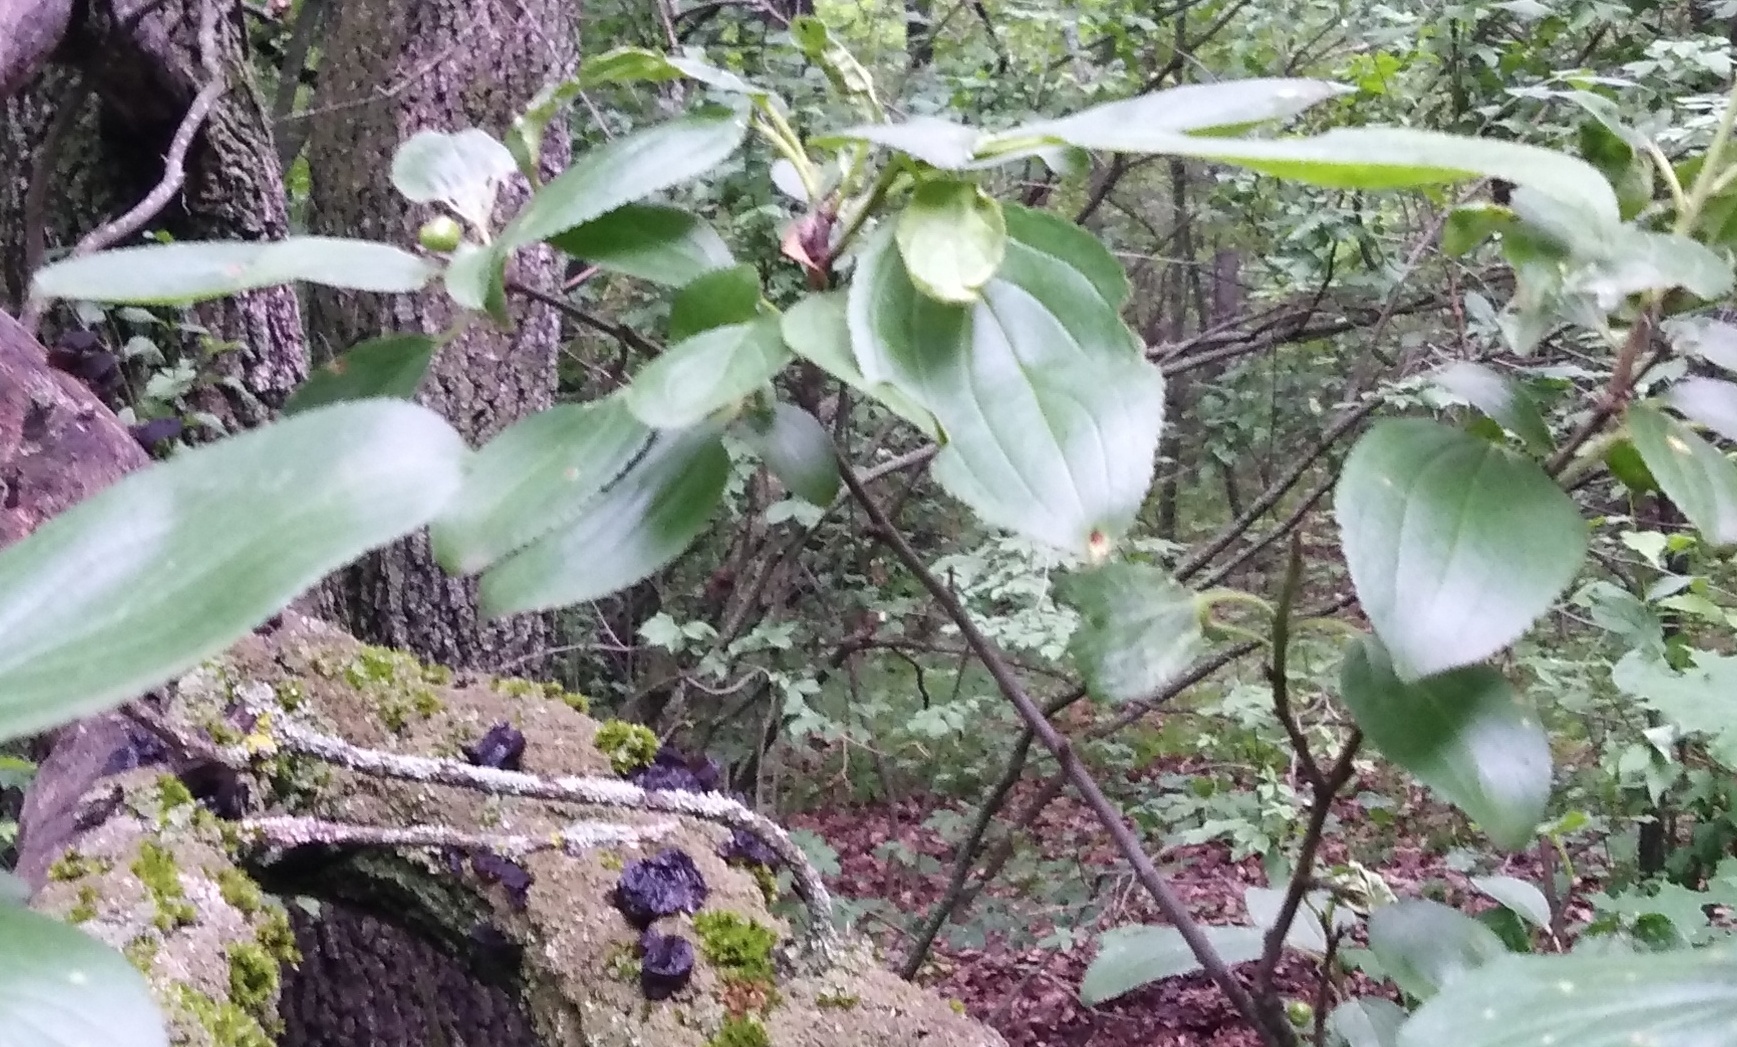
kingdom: Plantae
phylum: Tracheophyta
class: Magnoliopsida
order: Rosales
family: Rhamnaceae
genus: Rhamnus
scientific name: Rhamnus cathartica
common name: Common buckthorn
